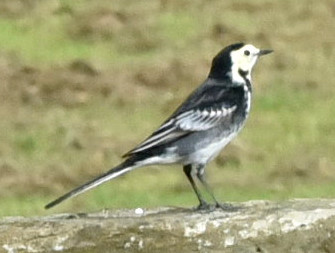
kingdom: Animalia
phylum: Chordata
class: Aves
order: Passeriformes
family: Motacillidae
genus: Motacilla
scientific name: Motacilla alba
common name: White wagtail
